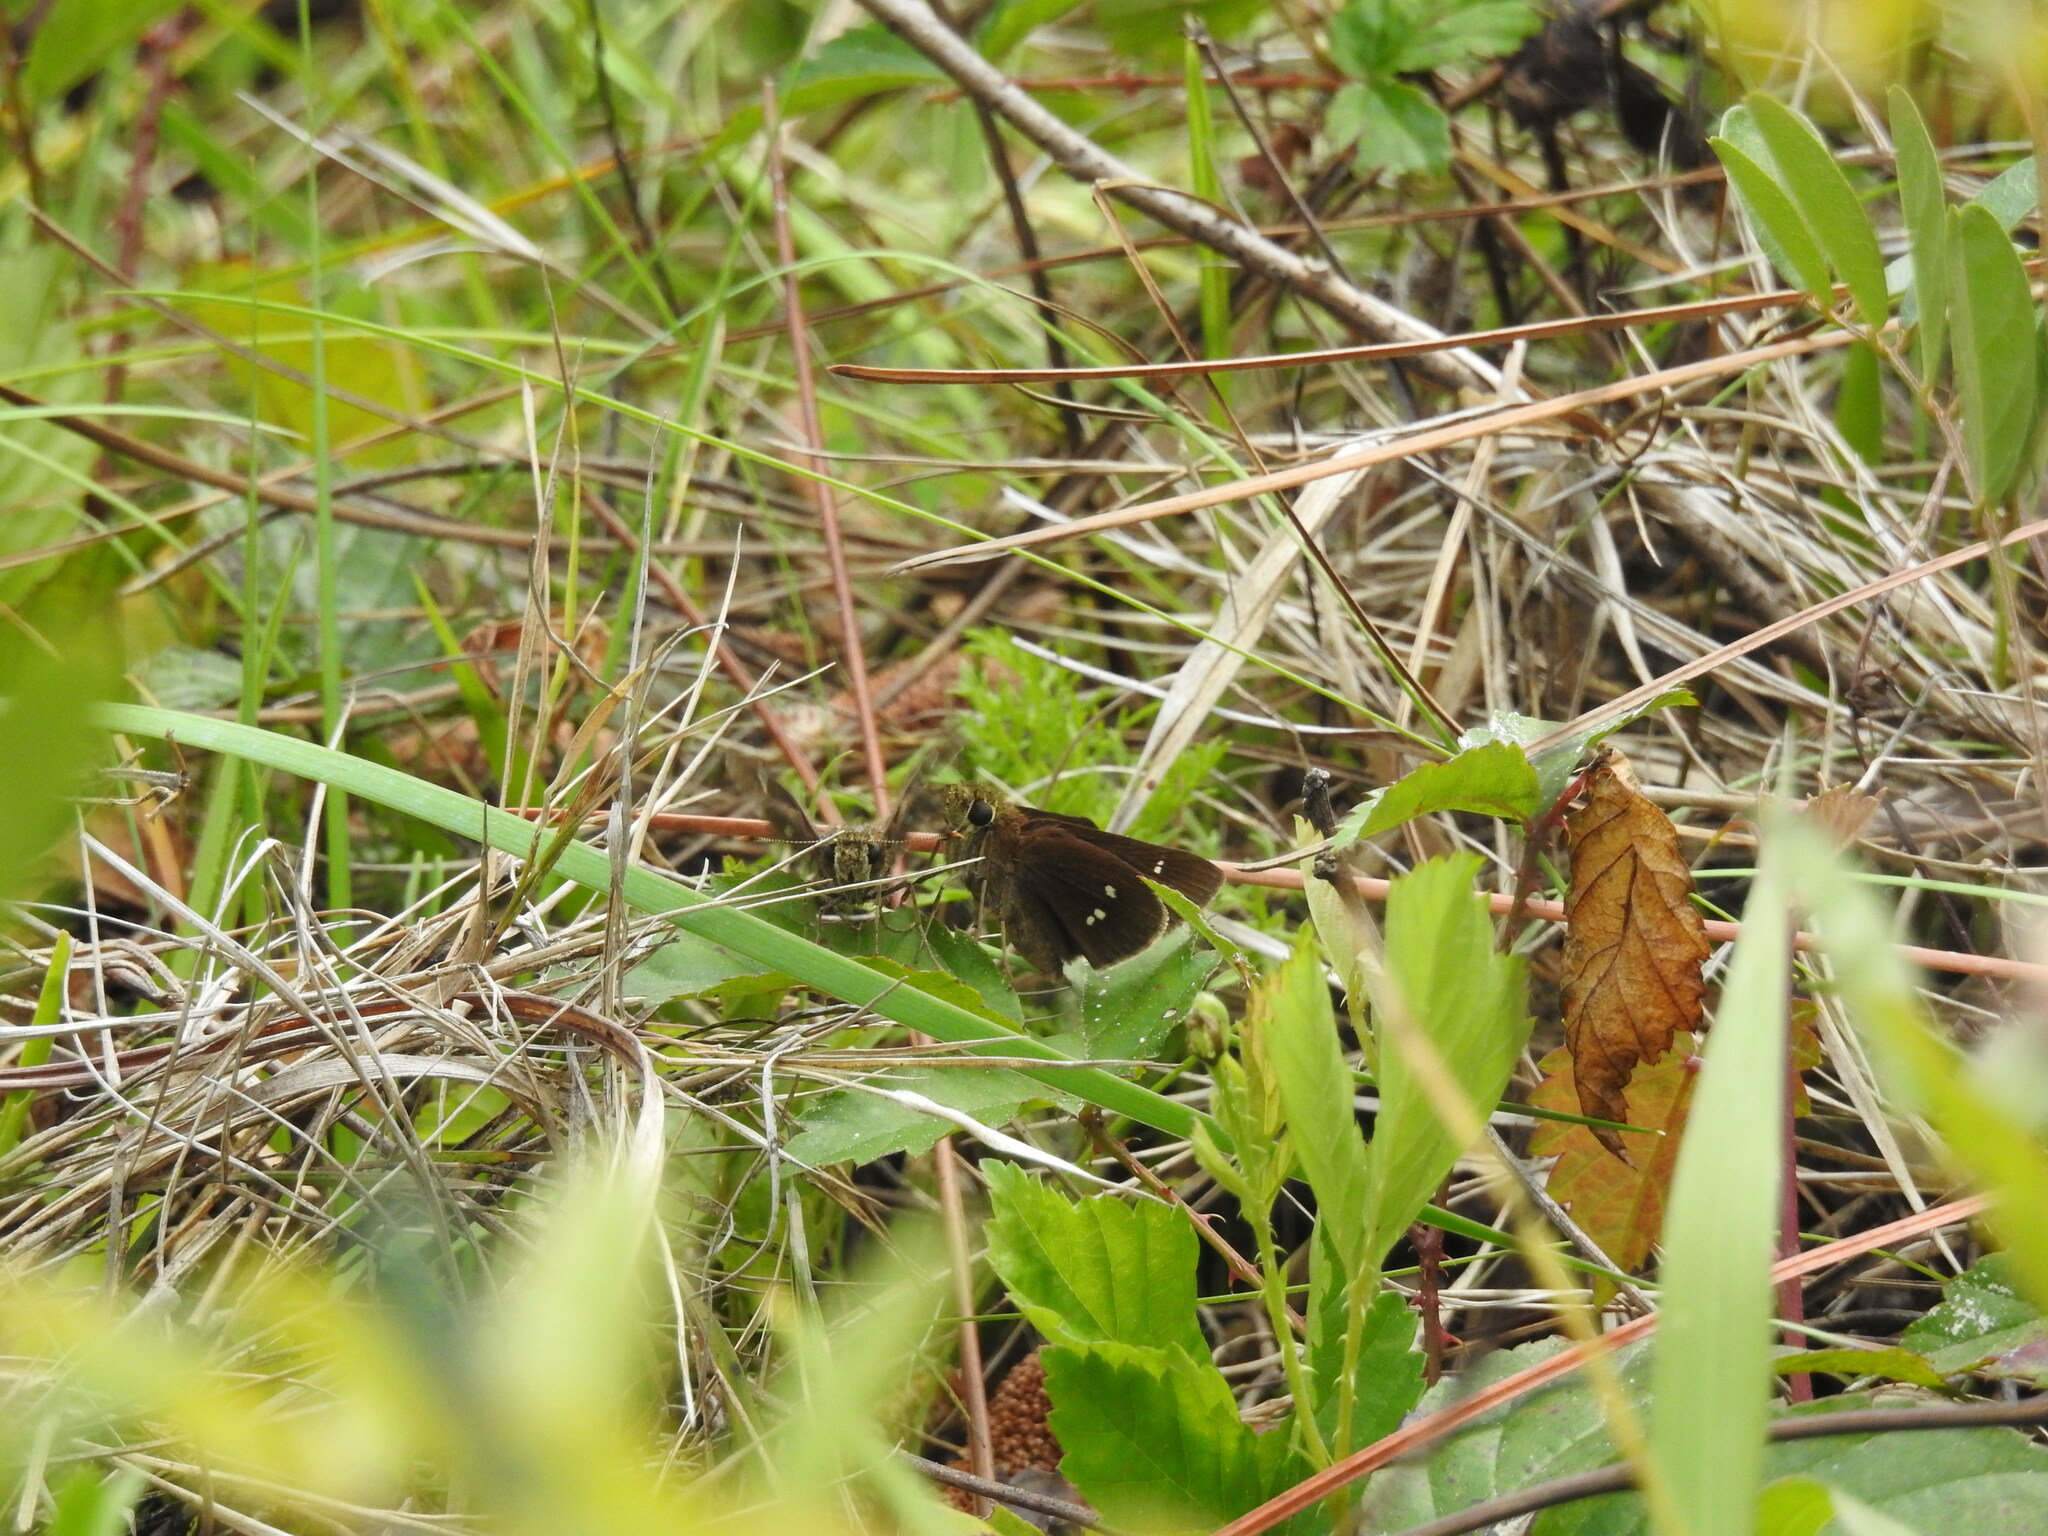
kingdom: Animalia
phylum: Arthropoda
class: Insecta
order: Lepidoptera
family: Hesperiidae
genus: Oligoria
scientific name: Oligoria maculata
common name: Twin-spot skipper
